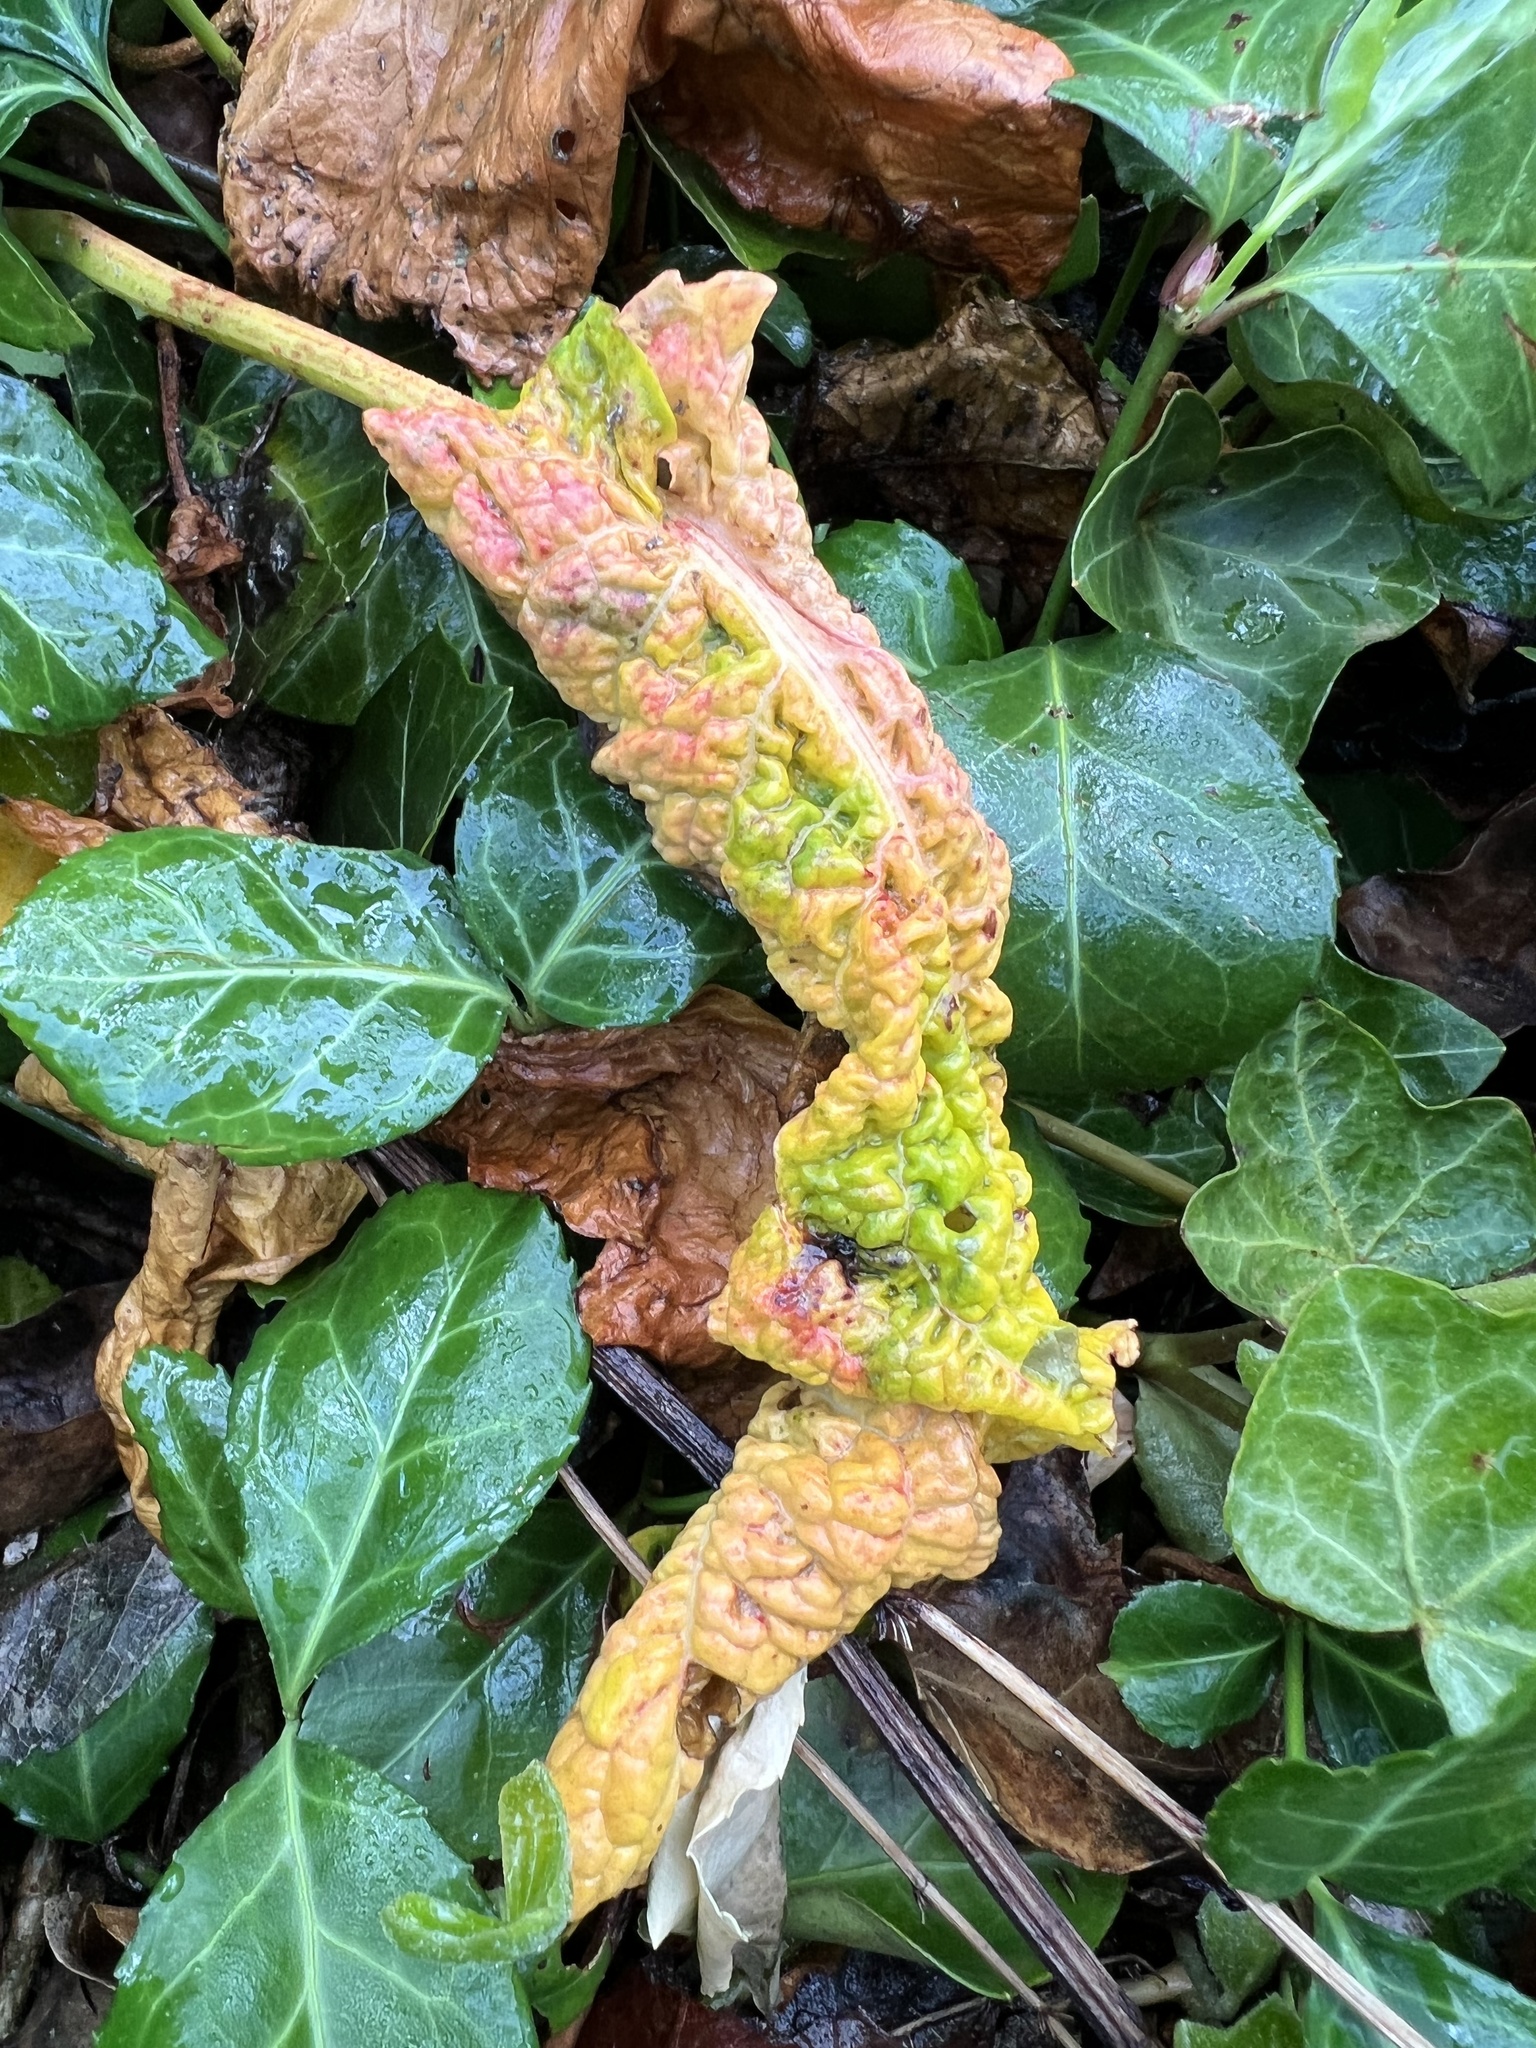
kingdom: Fungi
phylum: Ascomycota
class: Dothideomycetes
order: Mycosphaerellales
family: Mycosphaerellaceae
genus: Ramularia
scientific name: Ramularia rubella
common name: Red dock spot
